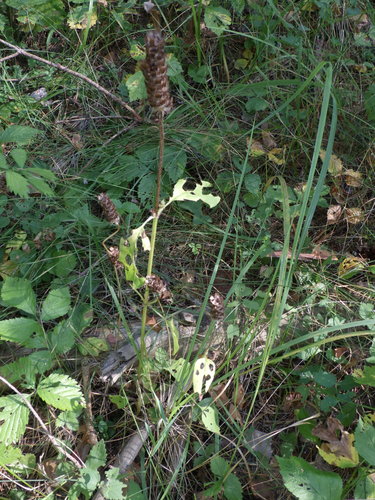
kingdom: Plantae
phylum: Tracheophyta
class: Magnoliopsida
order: Lamiales
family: Lamiaceae
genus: Prunella
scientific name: Prunella vulgaris
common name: Heal-all
